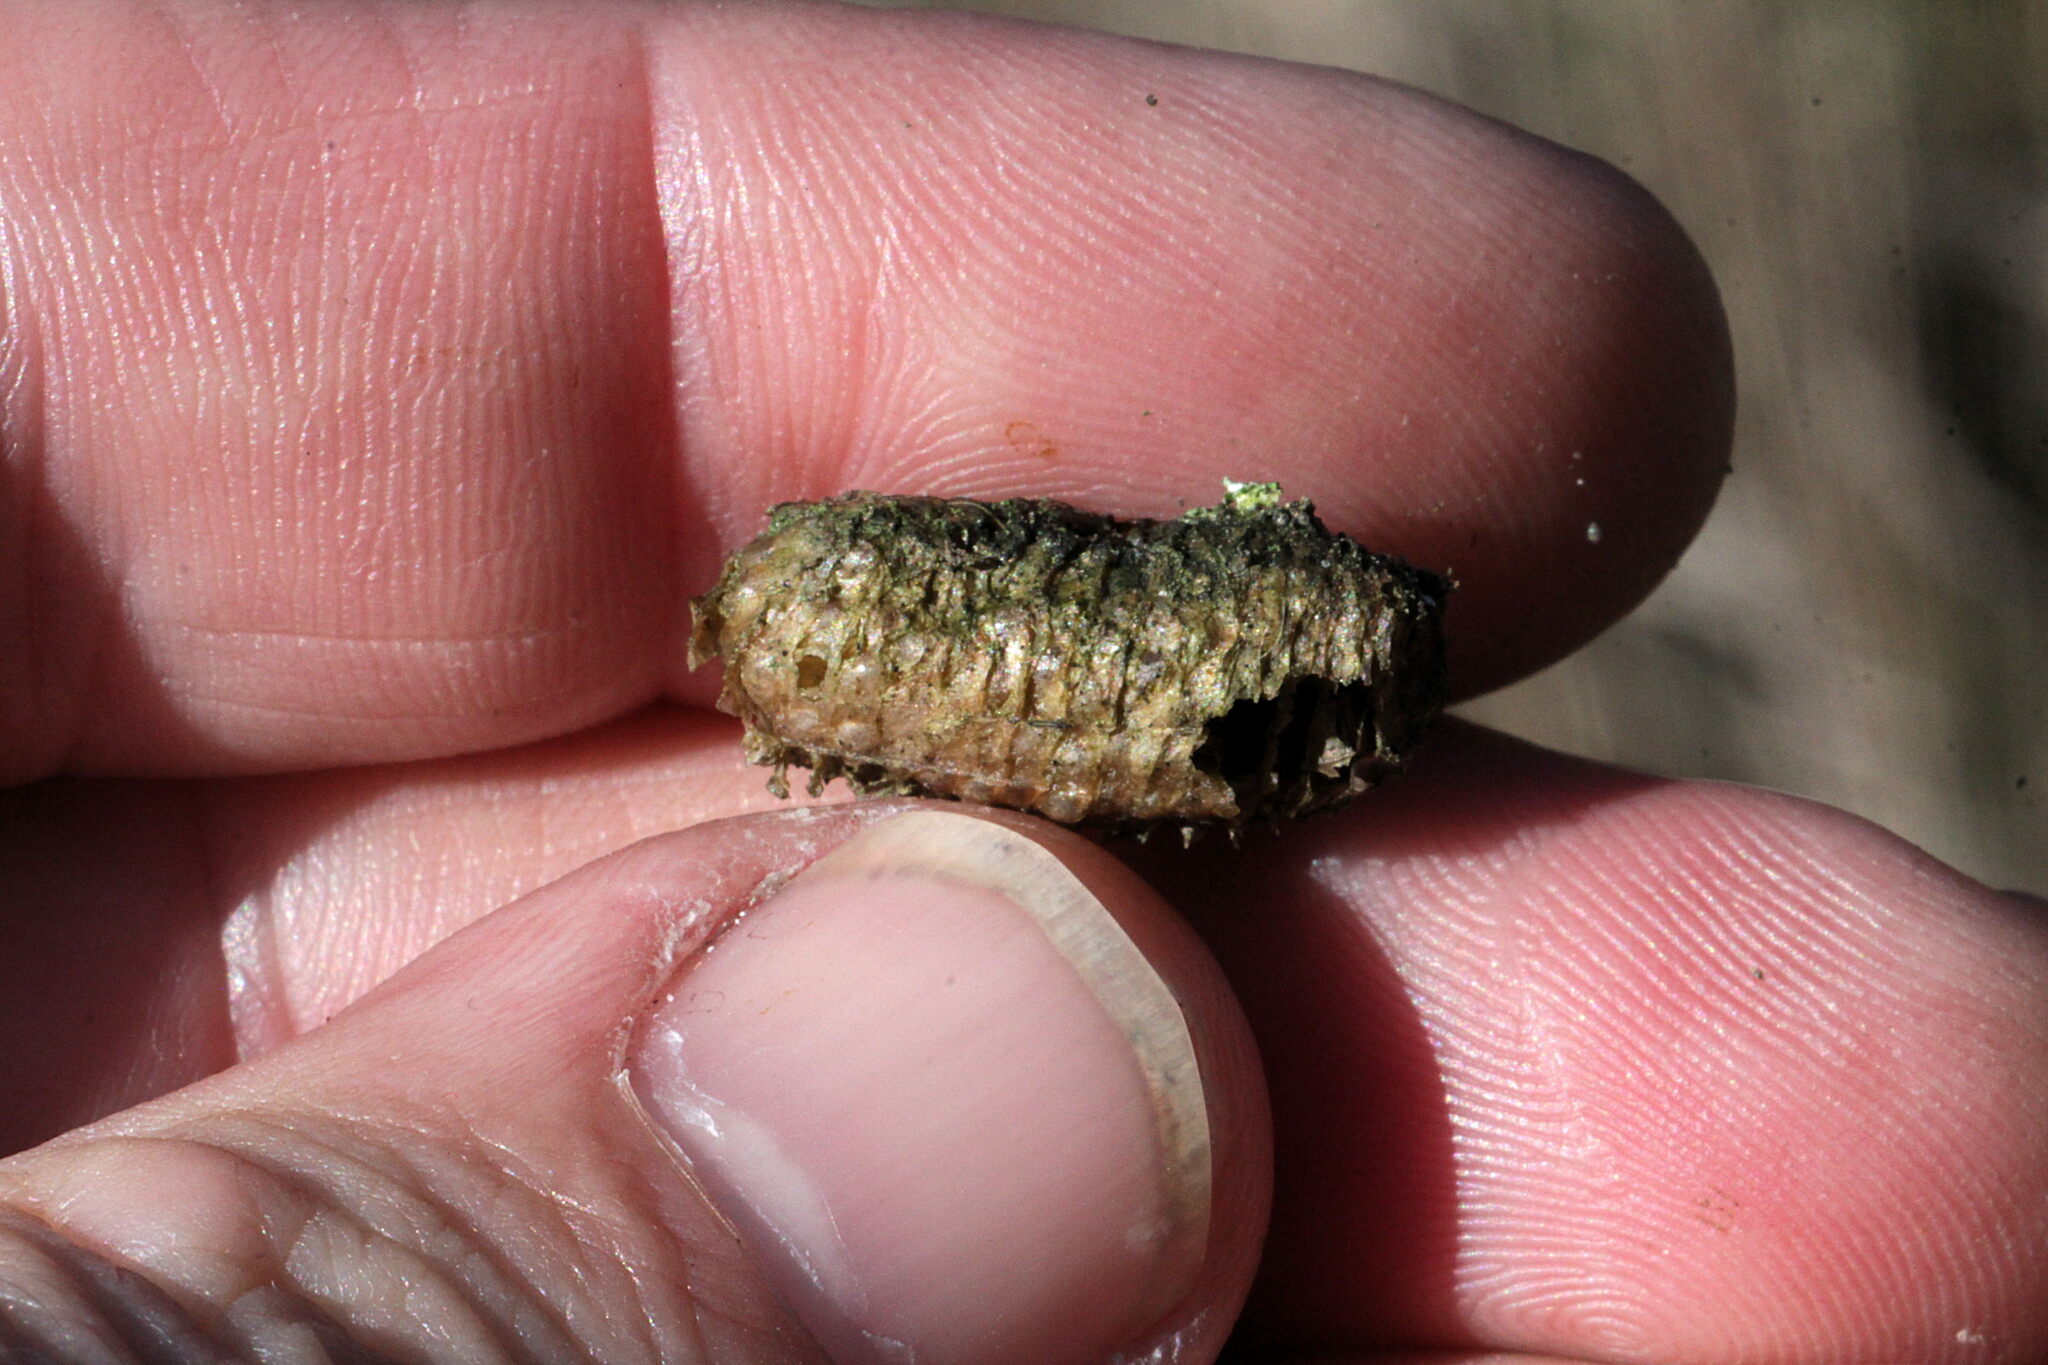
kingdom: Animalia
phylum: Arthropoda
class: Insecta
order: Mantodea
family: Mantidae
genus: Mantis
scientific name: Mantis religiosa
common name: Praying mantis
